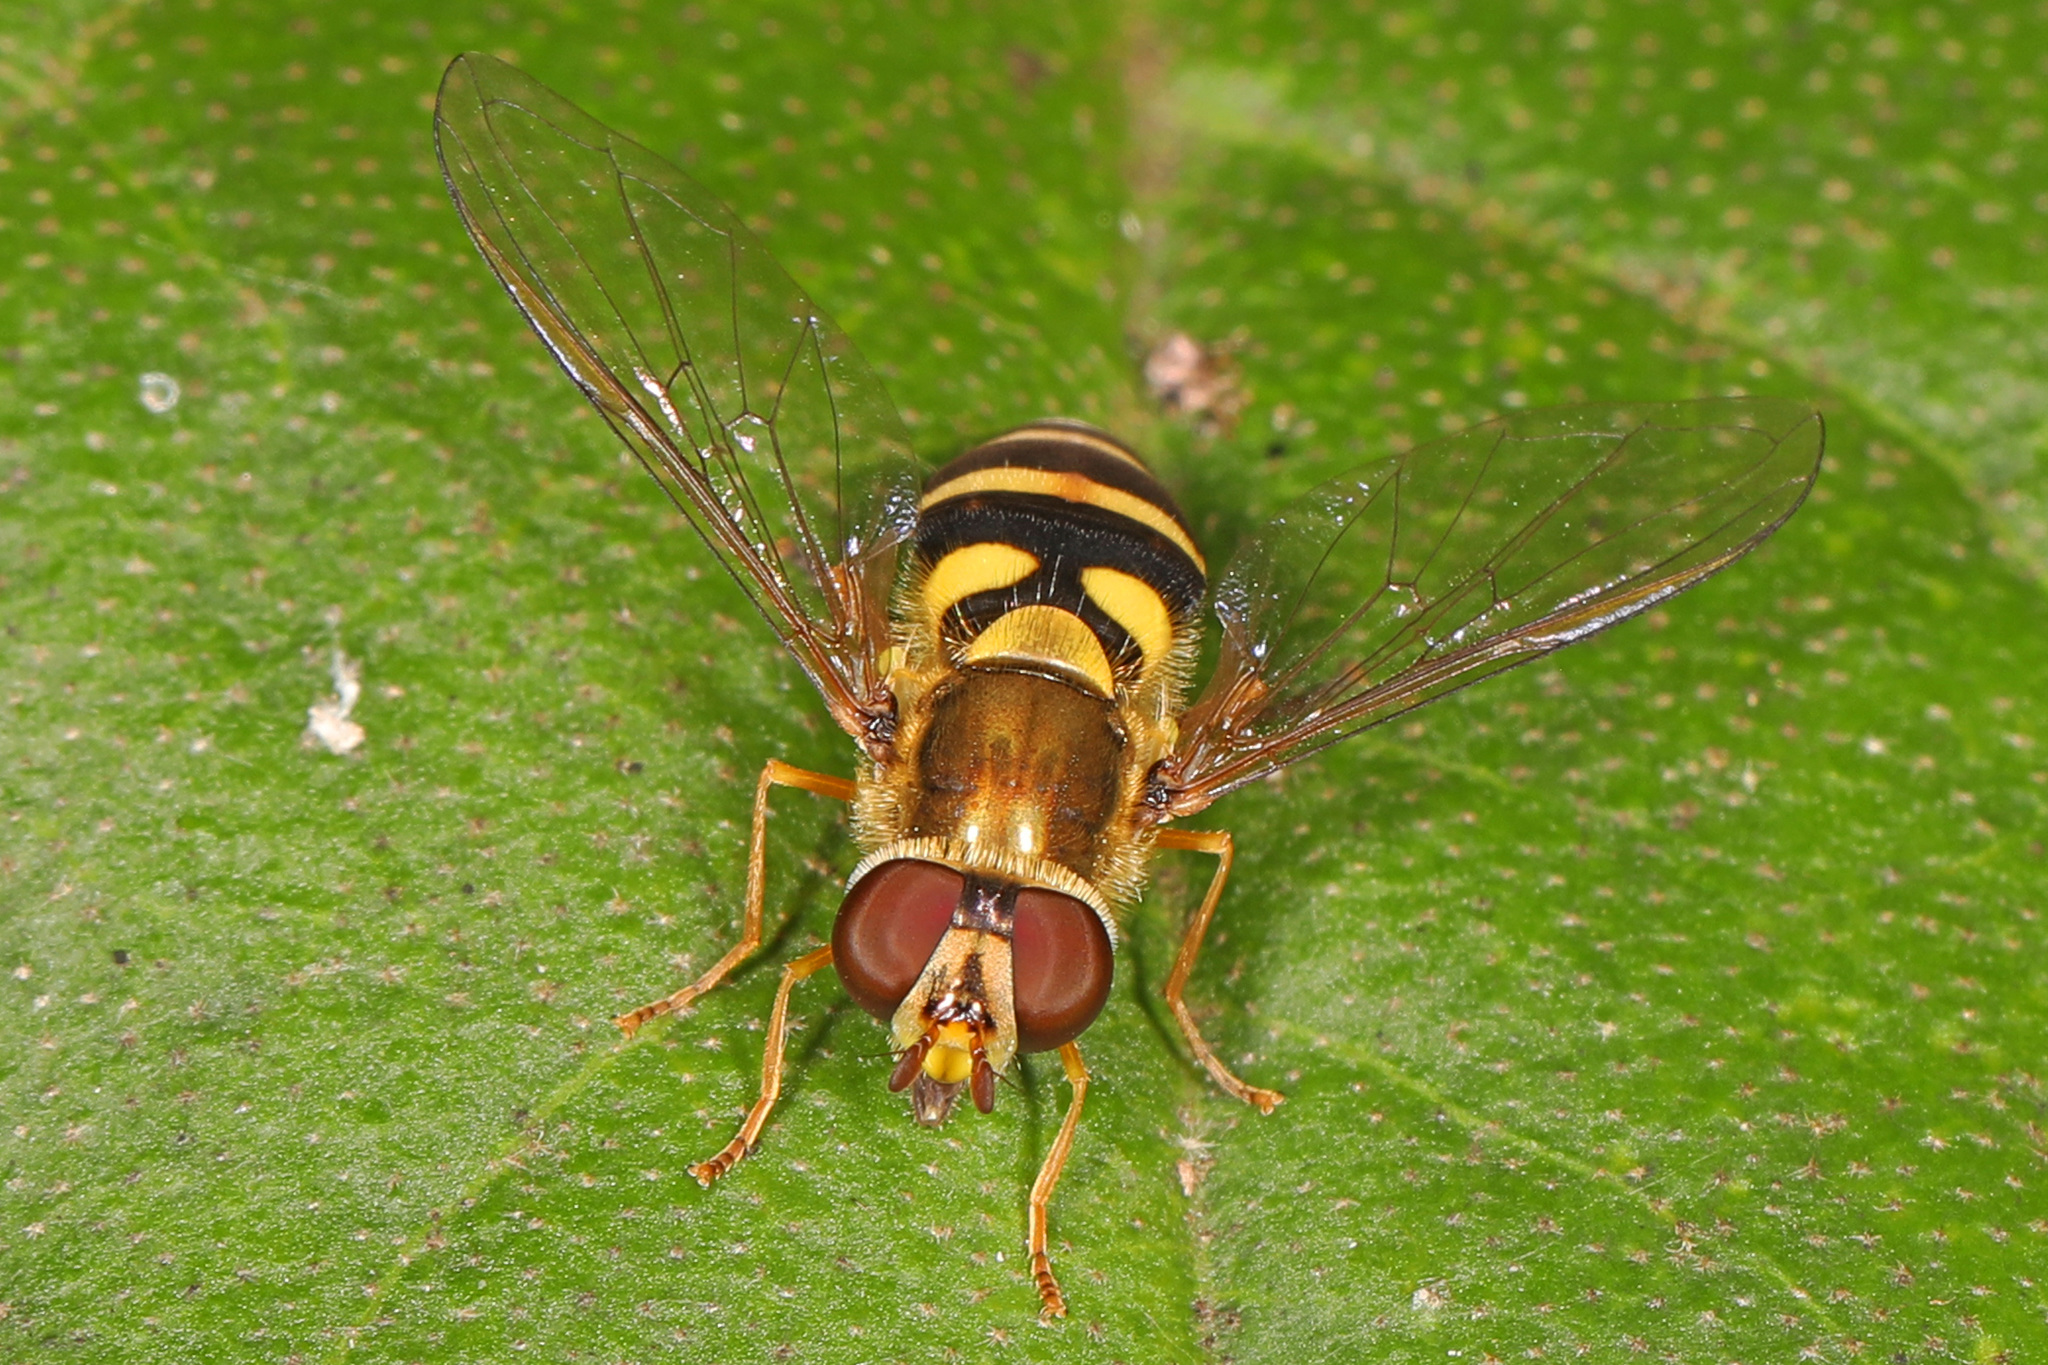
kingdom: Animalia
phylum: Arthropoda
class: Insecta
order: Diptera
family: Syrphidae
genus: Syrphus
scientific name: Syrphus knabi
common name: Eastern flower fly
